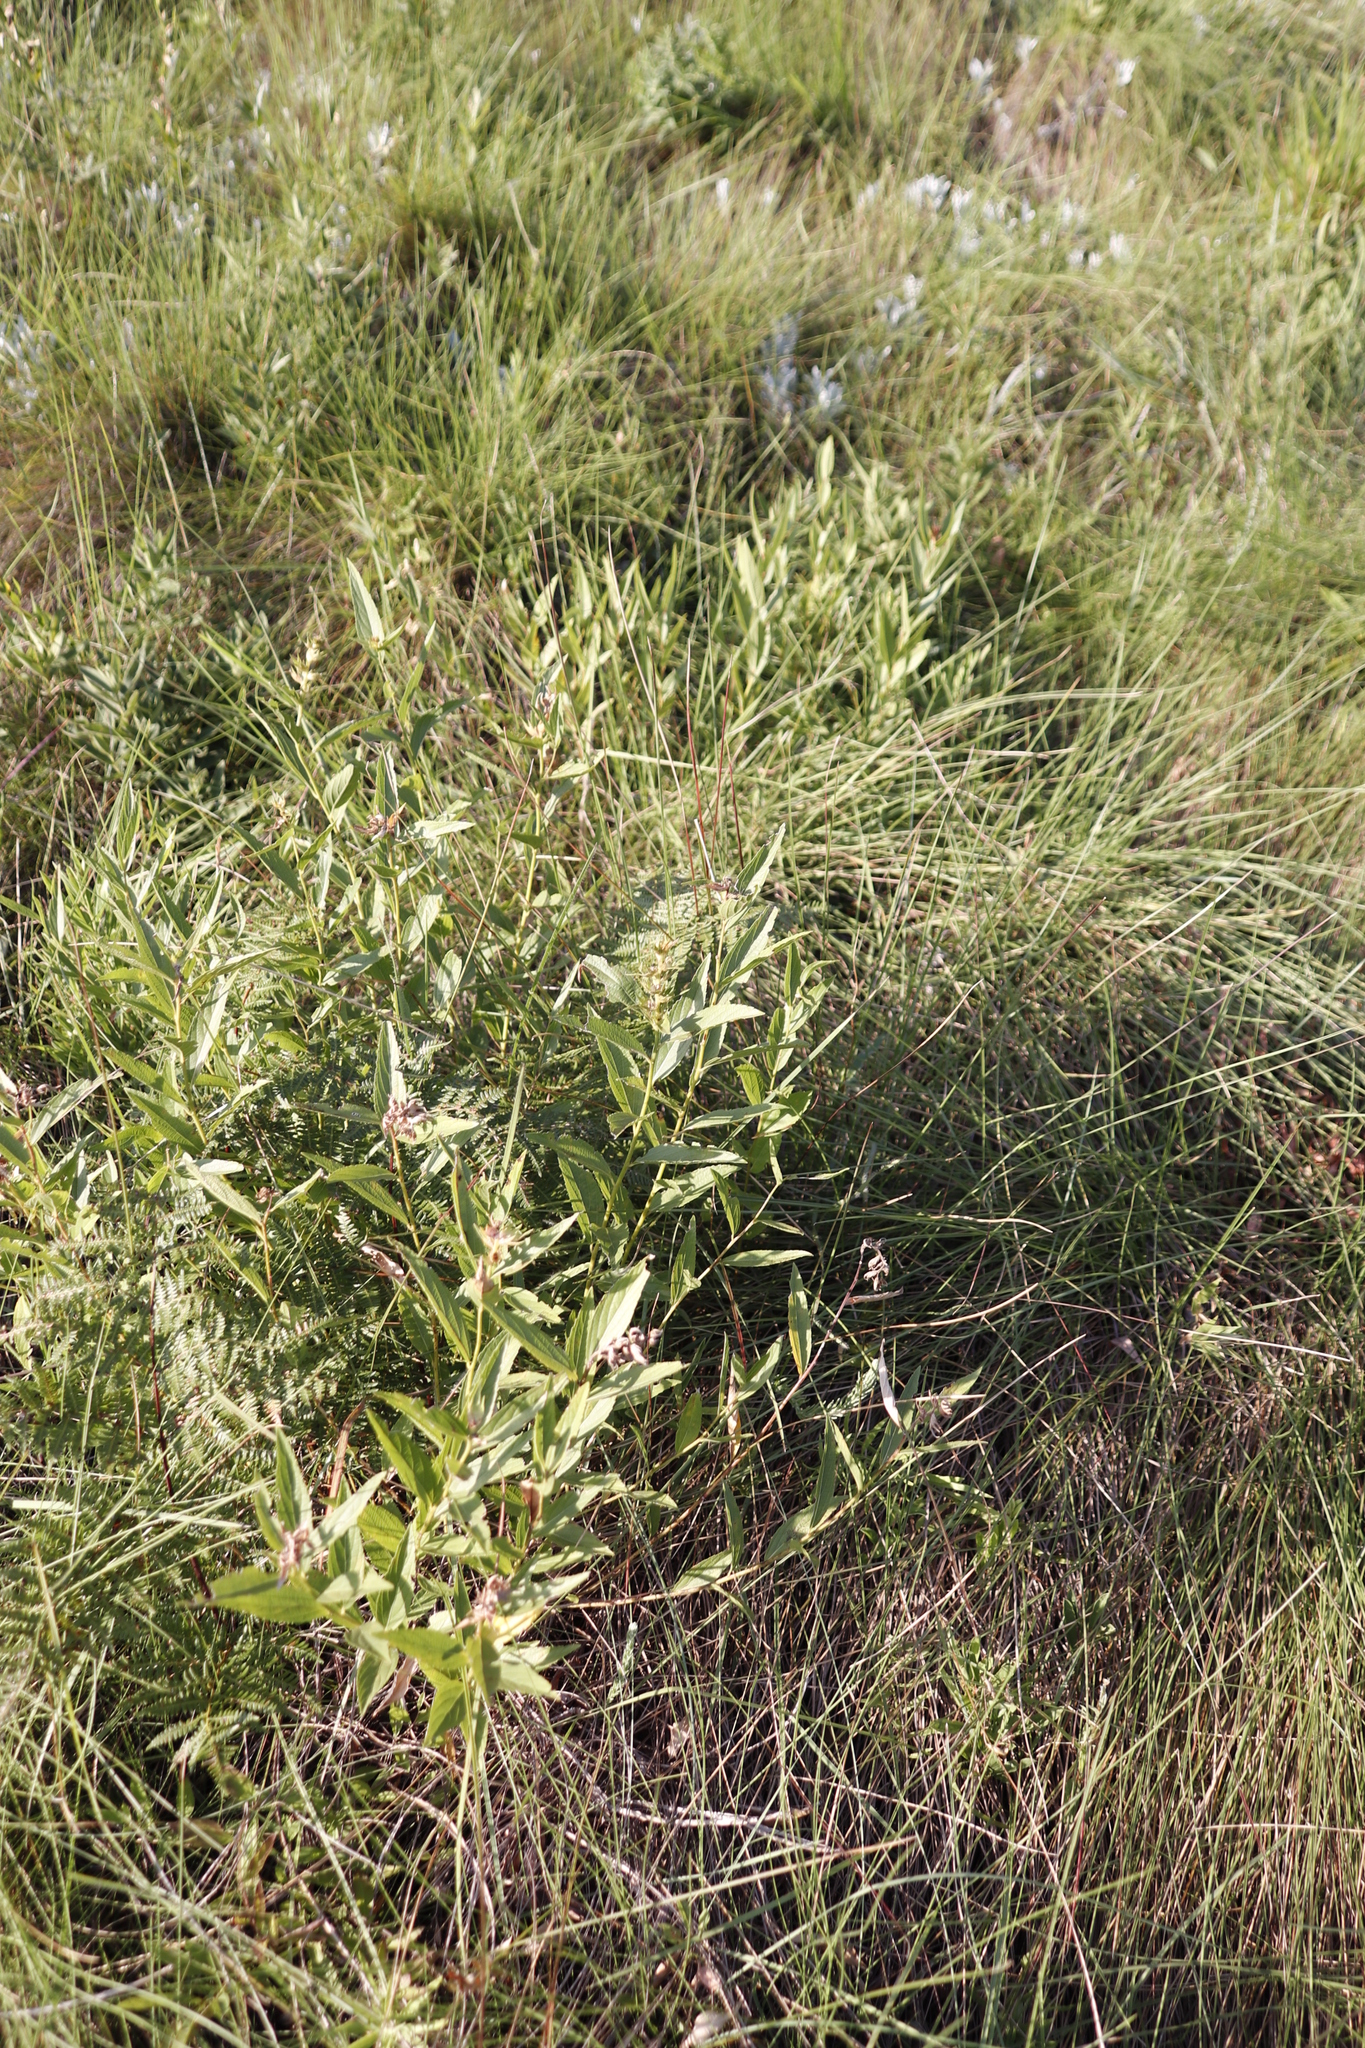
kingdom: Plantae
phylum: Tracheophyta
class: Magnoliopsida
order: Lamiales
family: Lamiaceae
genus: Coleus
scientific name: Coleus calycinus
